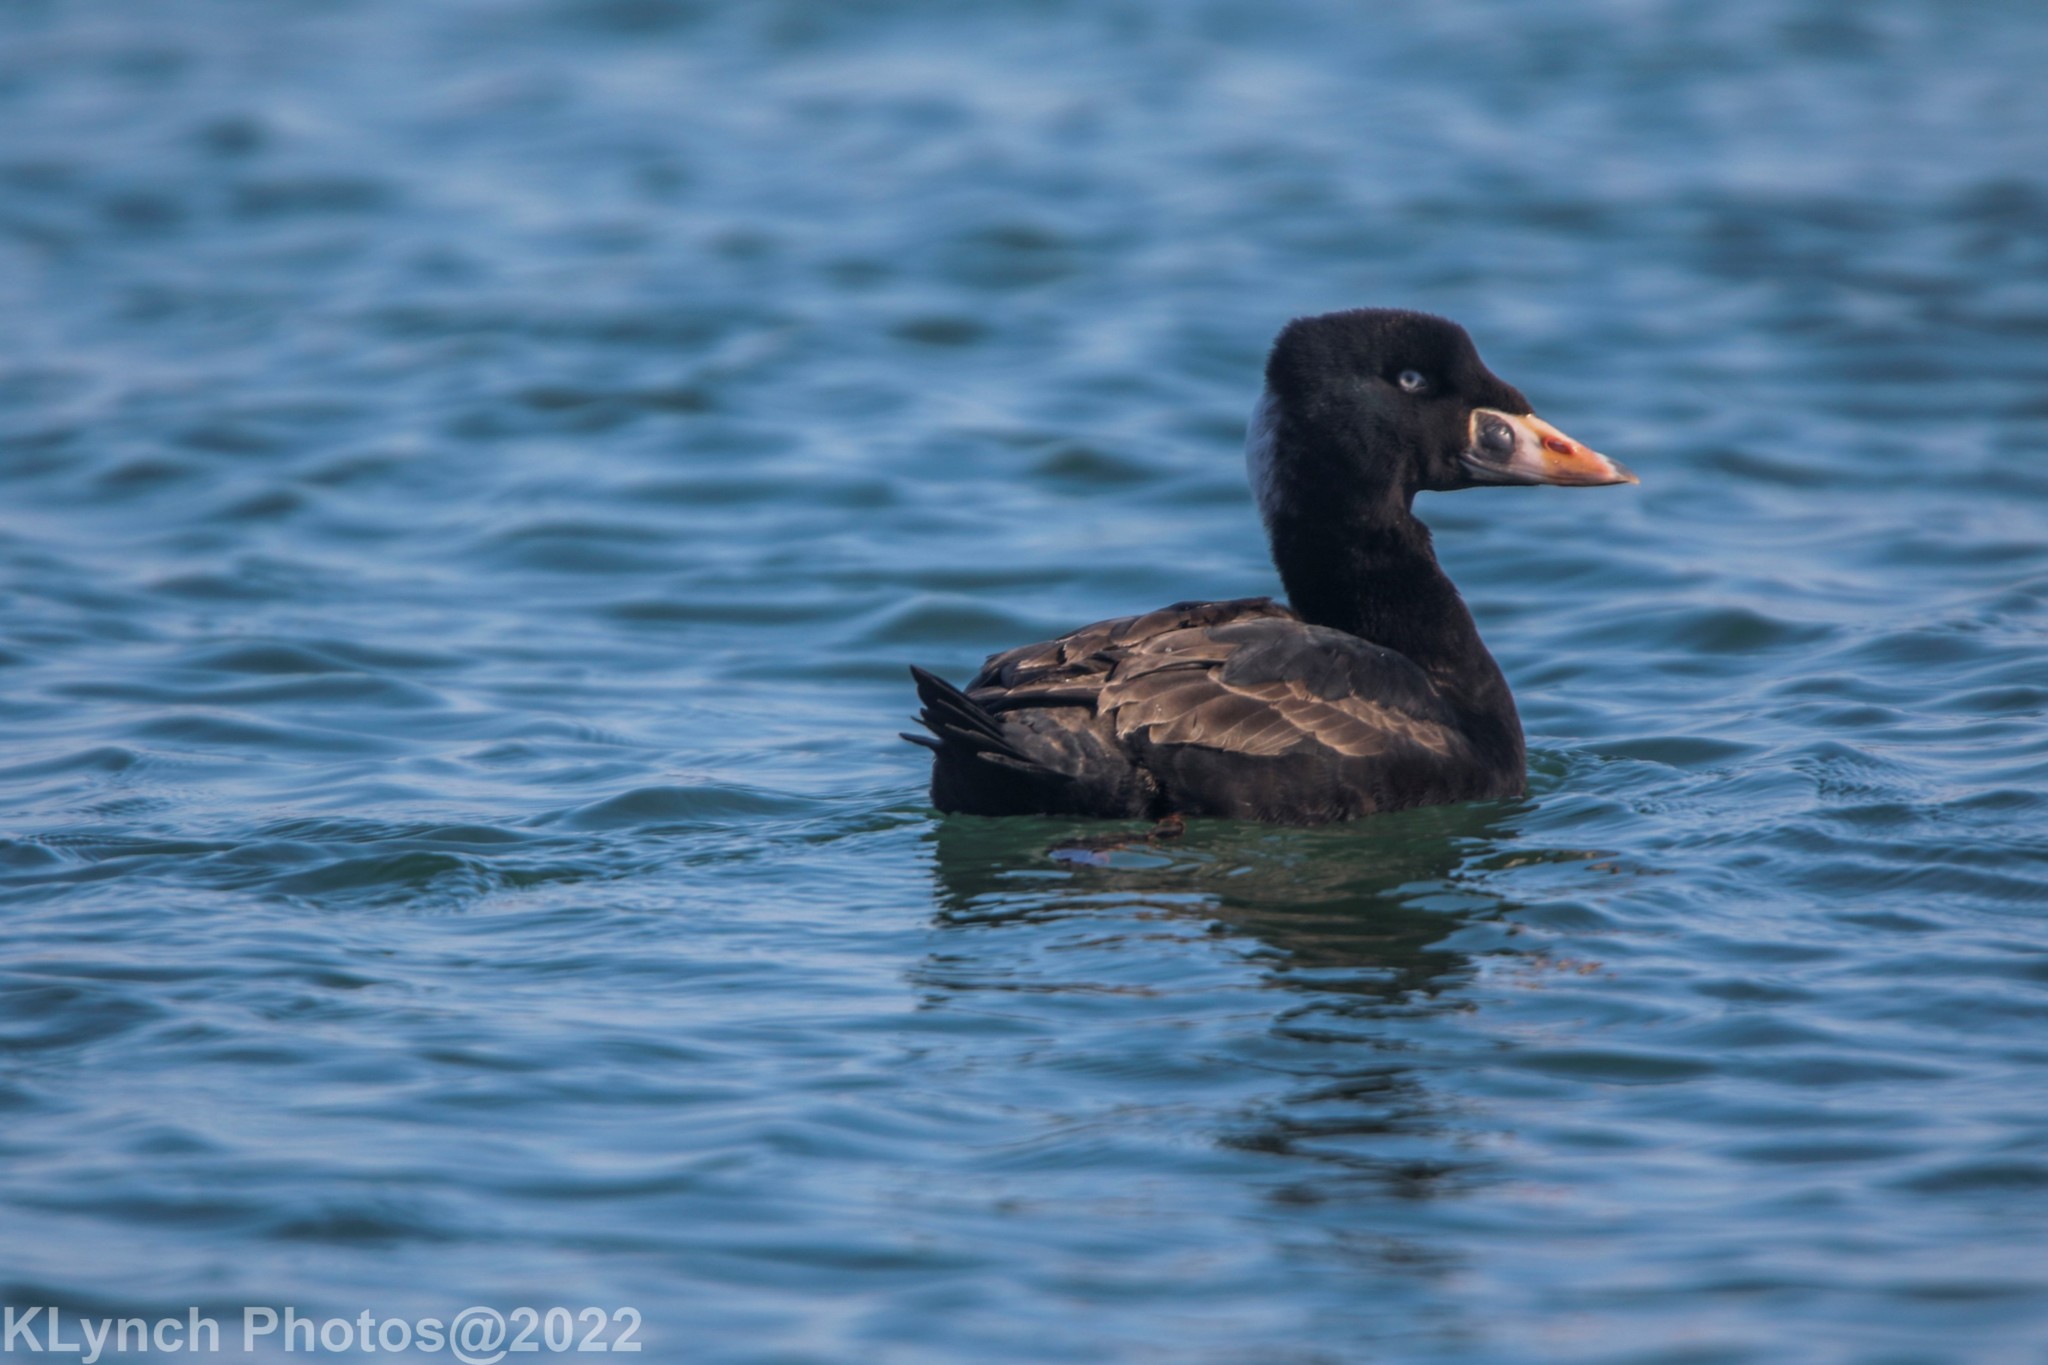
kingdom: Animalia
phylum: Chordata
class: Aves
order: Anseriformes
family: Anatidae
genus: Melanitta
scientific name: Melanitta perspicillata
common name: Surf scoter
